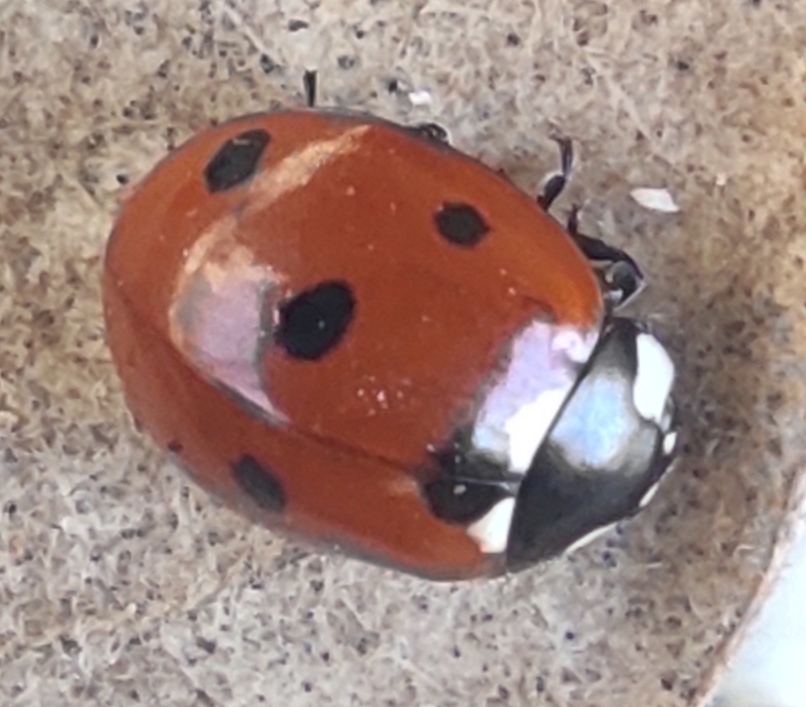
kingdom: Animalia
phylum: Arthropoda
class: Insecta
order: Coleoptera
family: Coccinellidae
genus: Coccinella
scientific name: Coccinella septempunctata
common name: Sevenspotted lady beetle
